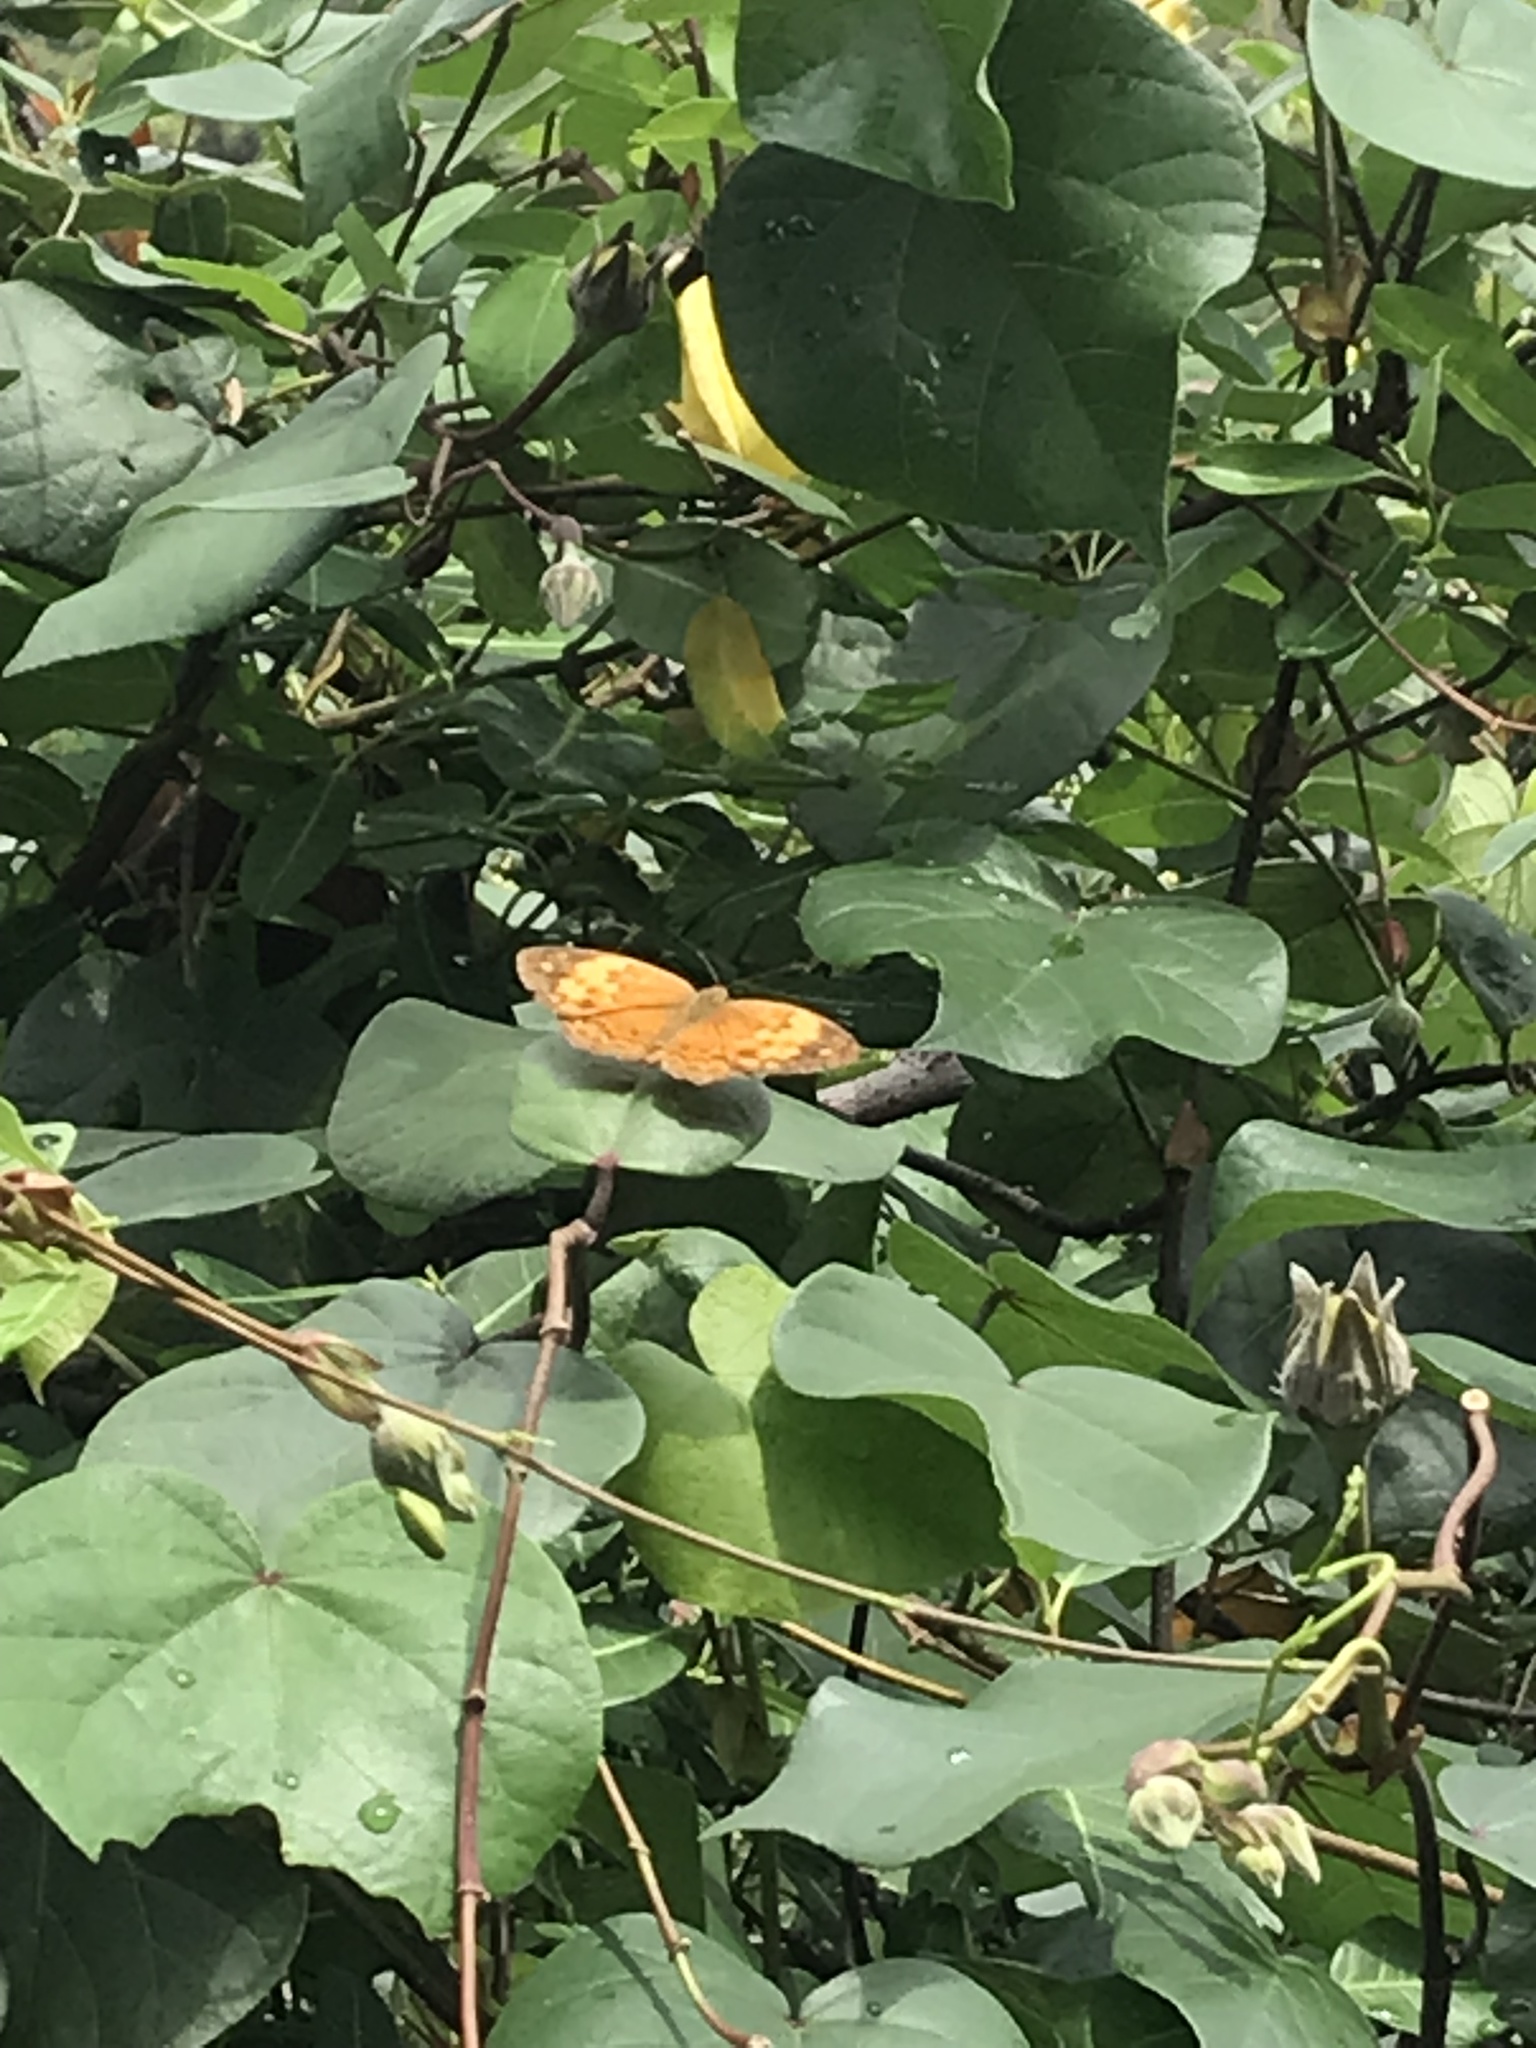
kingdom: Animalia
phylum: Arthropoda
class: Insecta
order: Lepidoptera
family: Nymphalidae
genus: Cupha
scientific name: Cupha erymanthis
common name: Rustic
